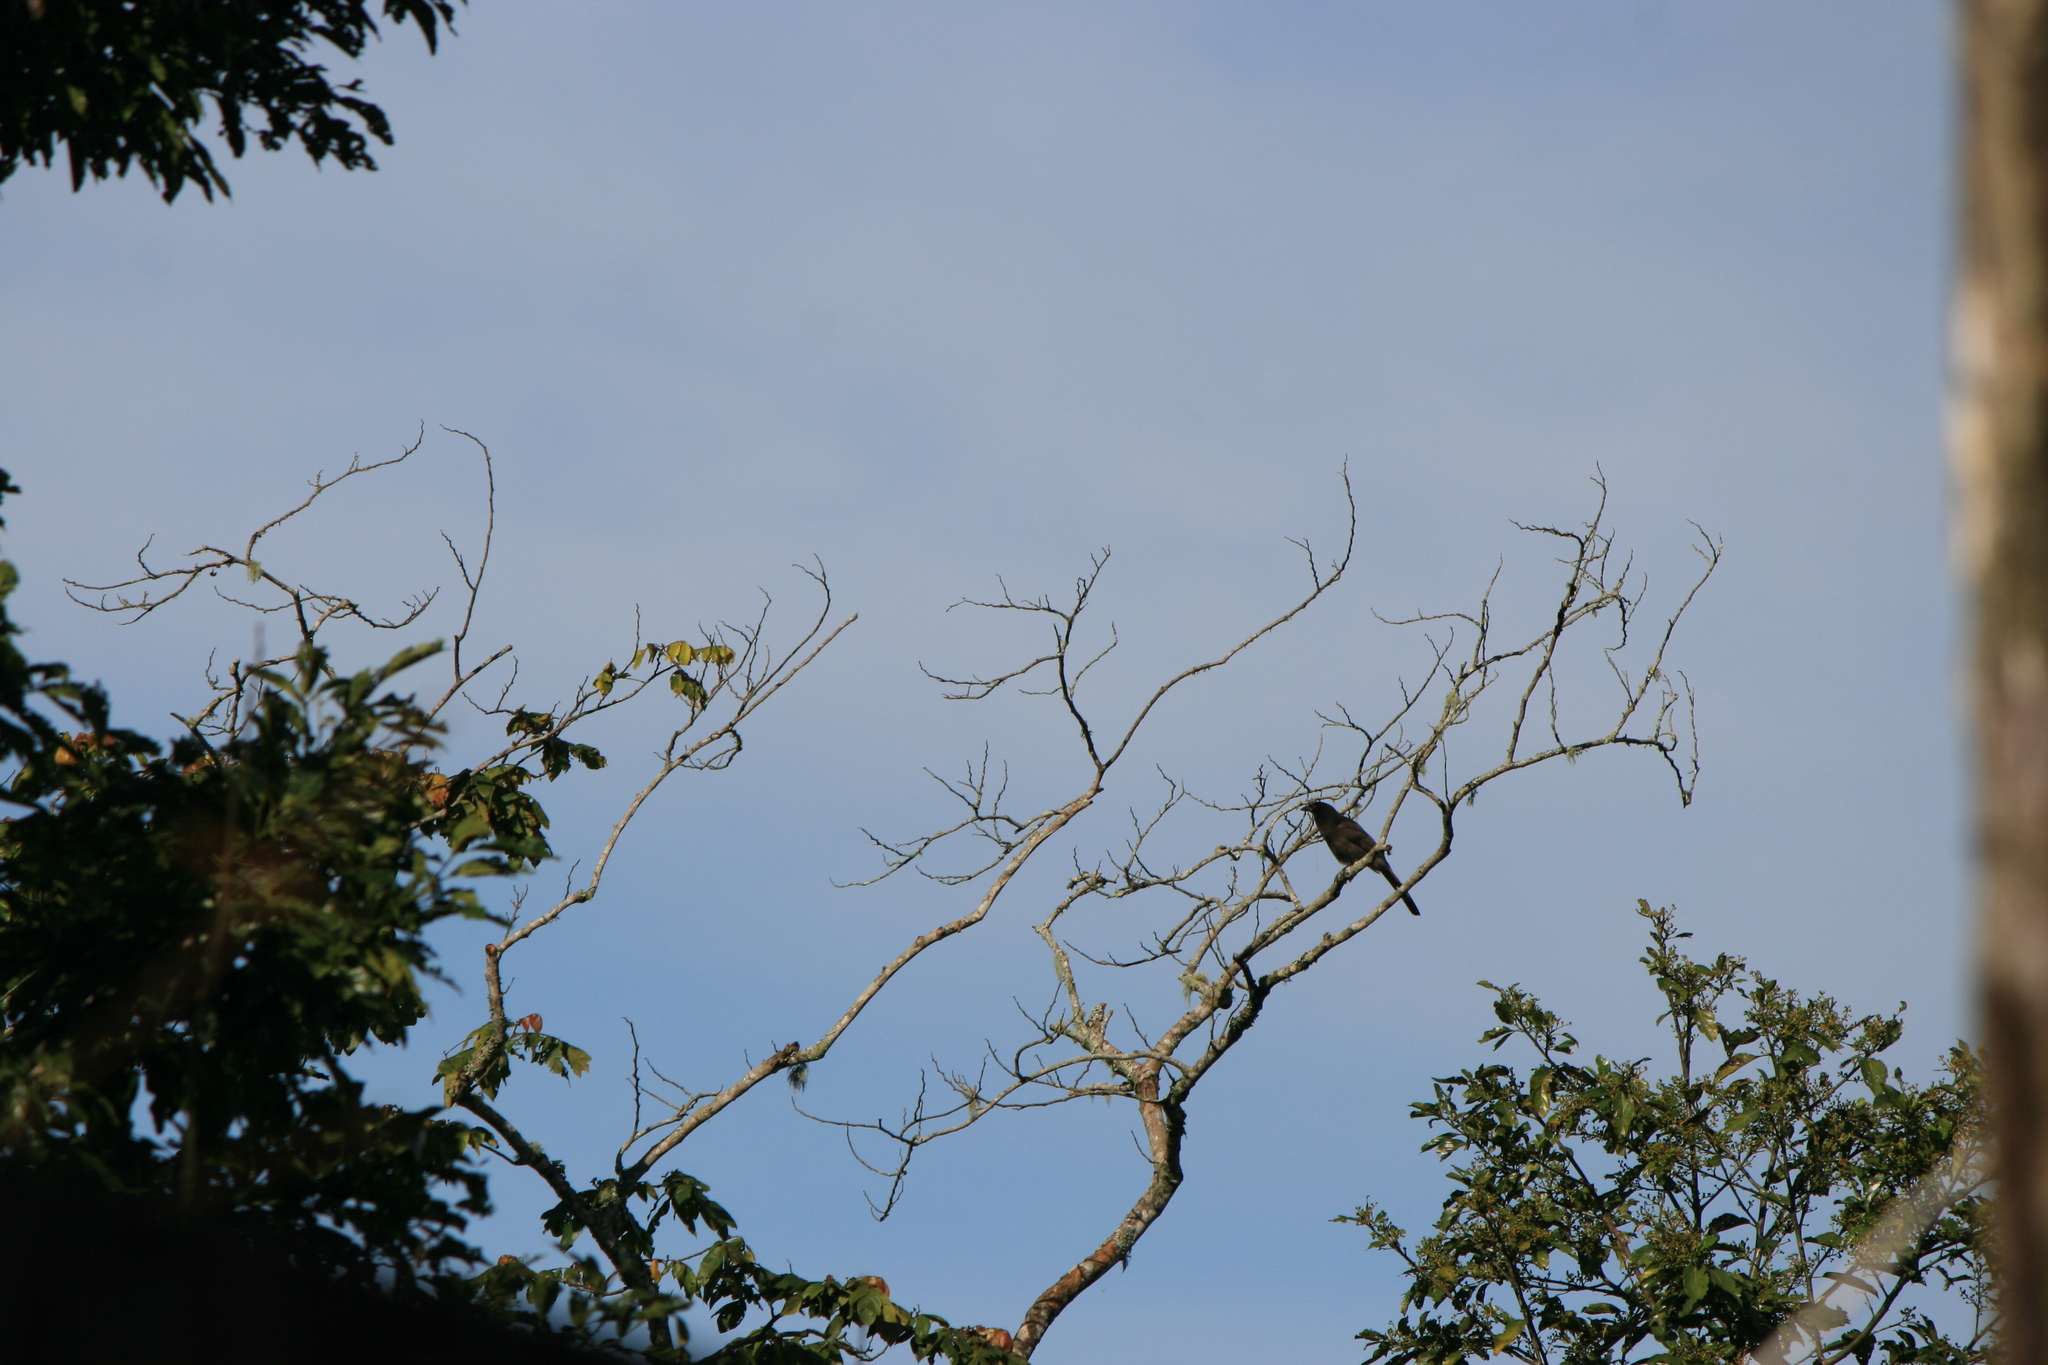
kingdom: Animalia
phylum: Chordata
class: Aves
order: Passeriformes
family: Corvidae
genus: Psilorhinus
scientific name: Psilorhinus morio
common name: Brown jay
